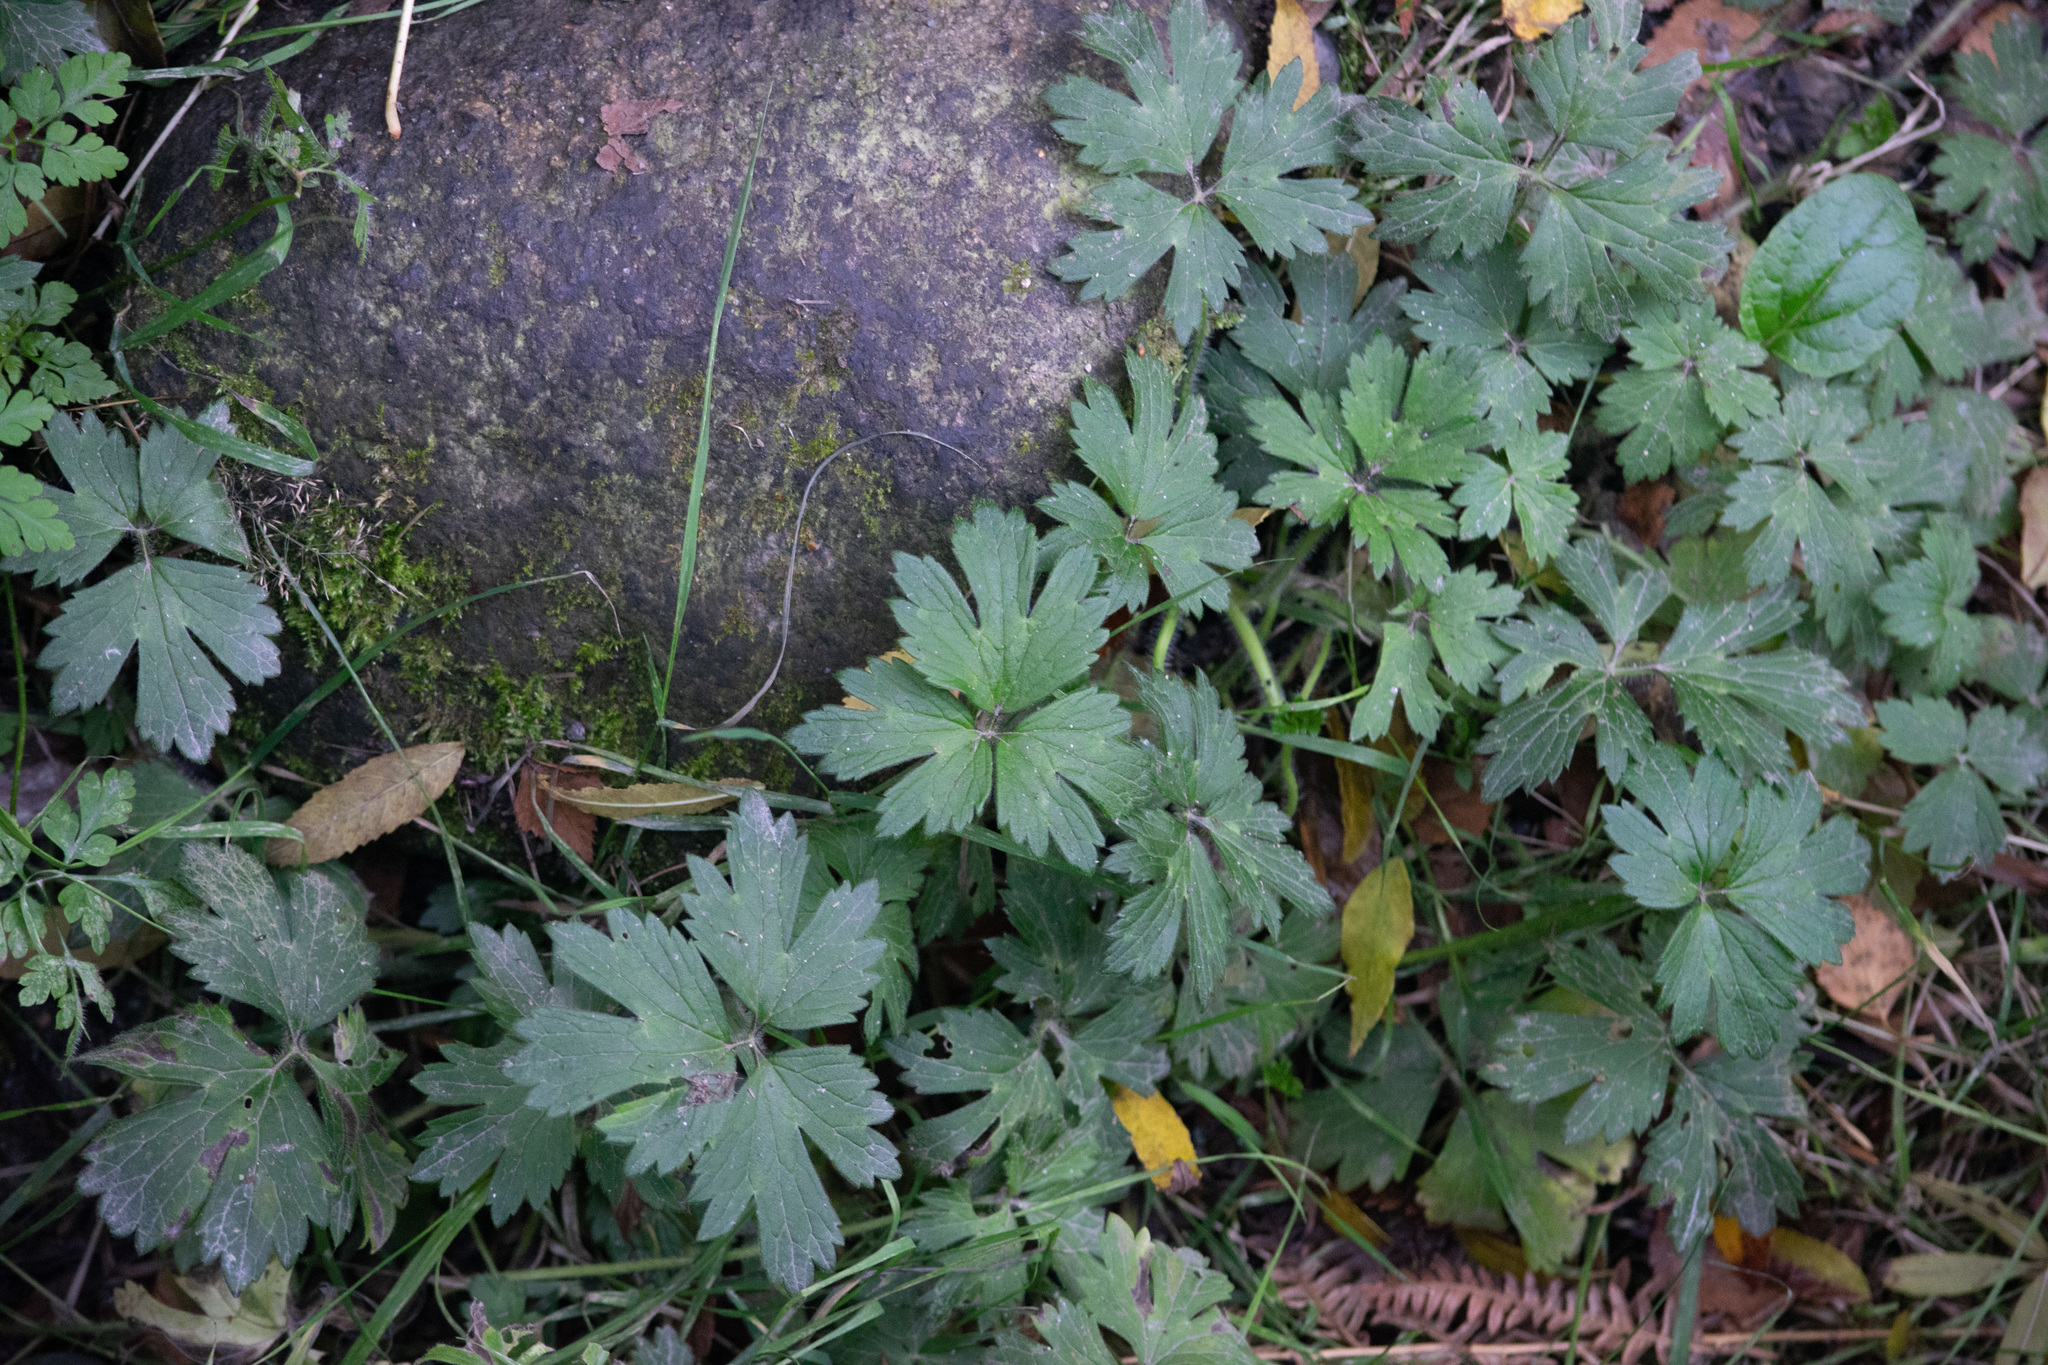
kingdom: Plantae
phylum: Tracheophyta
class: Magnoliopsida
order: Ranunculales
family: Ranunculaceae
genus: Ranunculus
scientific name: Ranunculus repens
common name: Creeping buttercup
